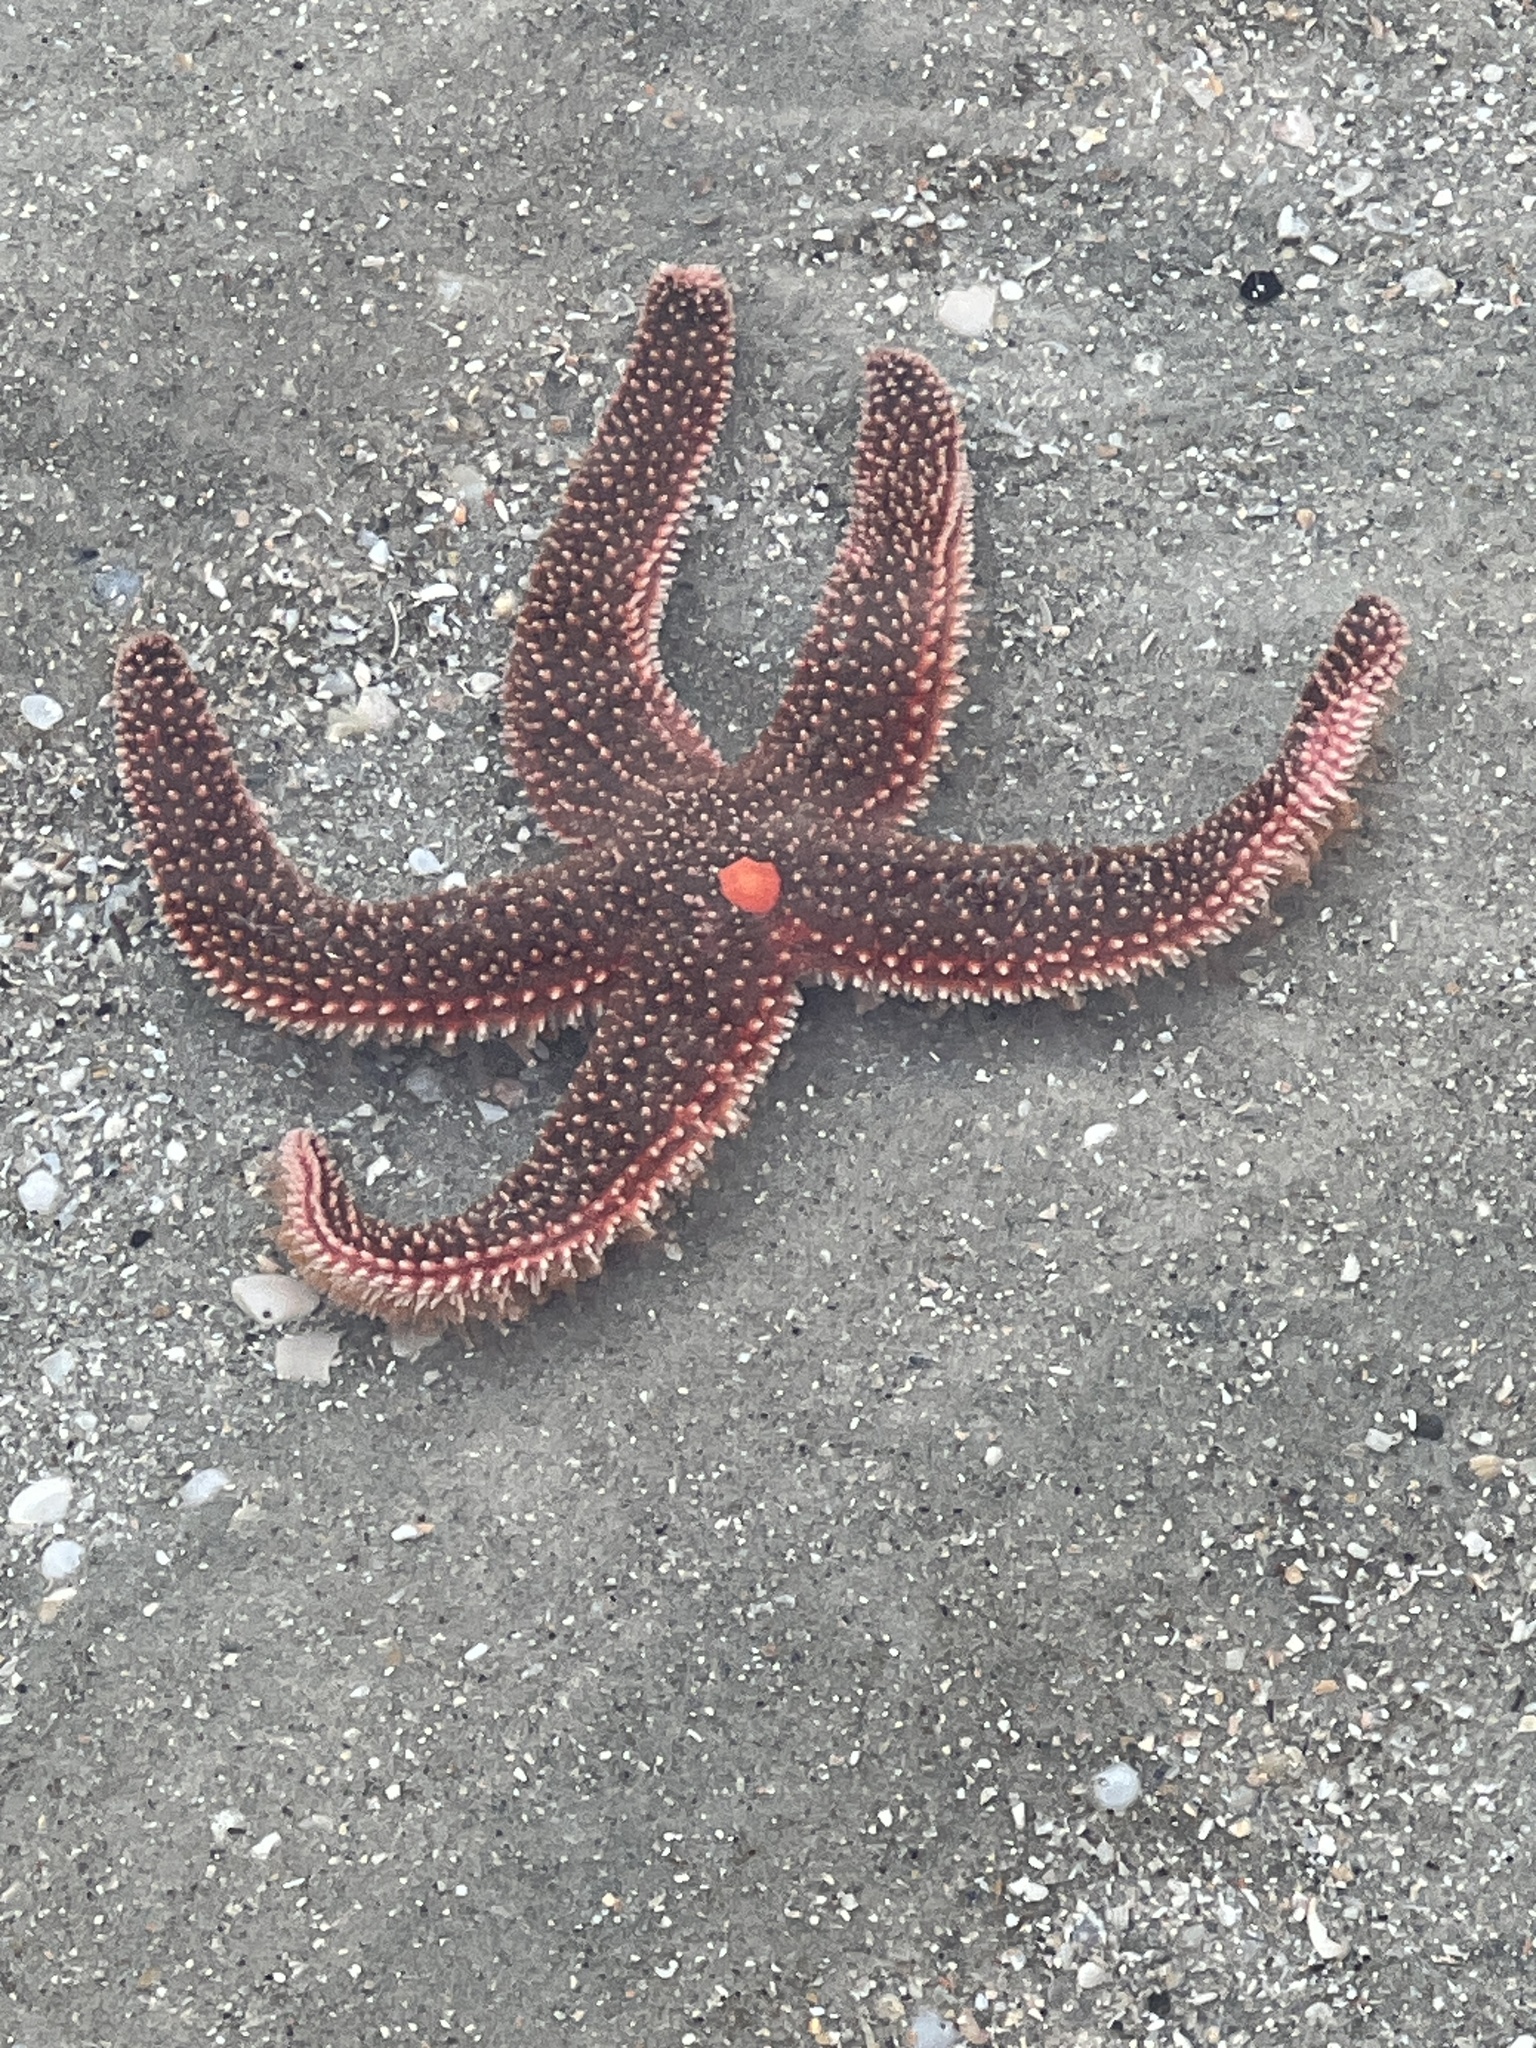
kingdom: Animalia
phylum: Echinodermata
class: Asteroidea
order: Forcipulatida
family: Asteriidae
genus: Asterias
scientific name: Asterias forbesi
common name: Forbes's sea star
